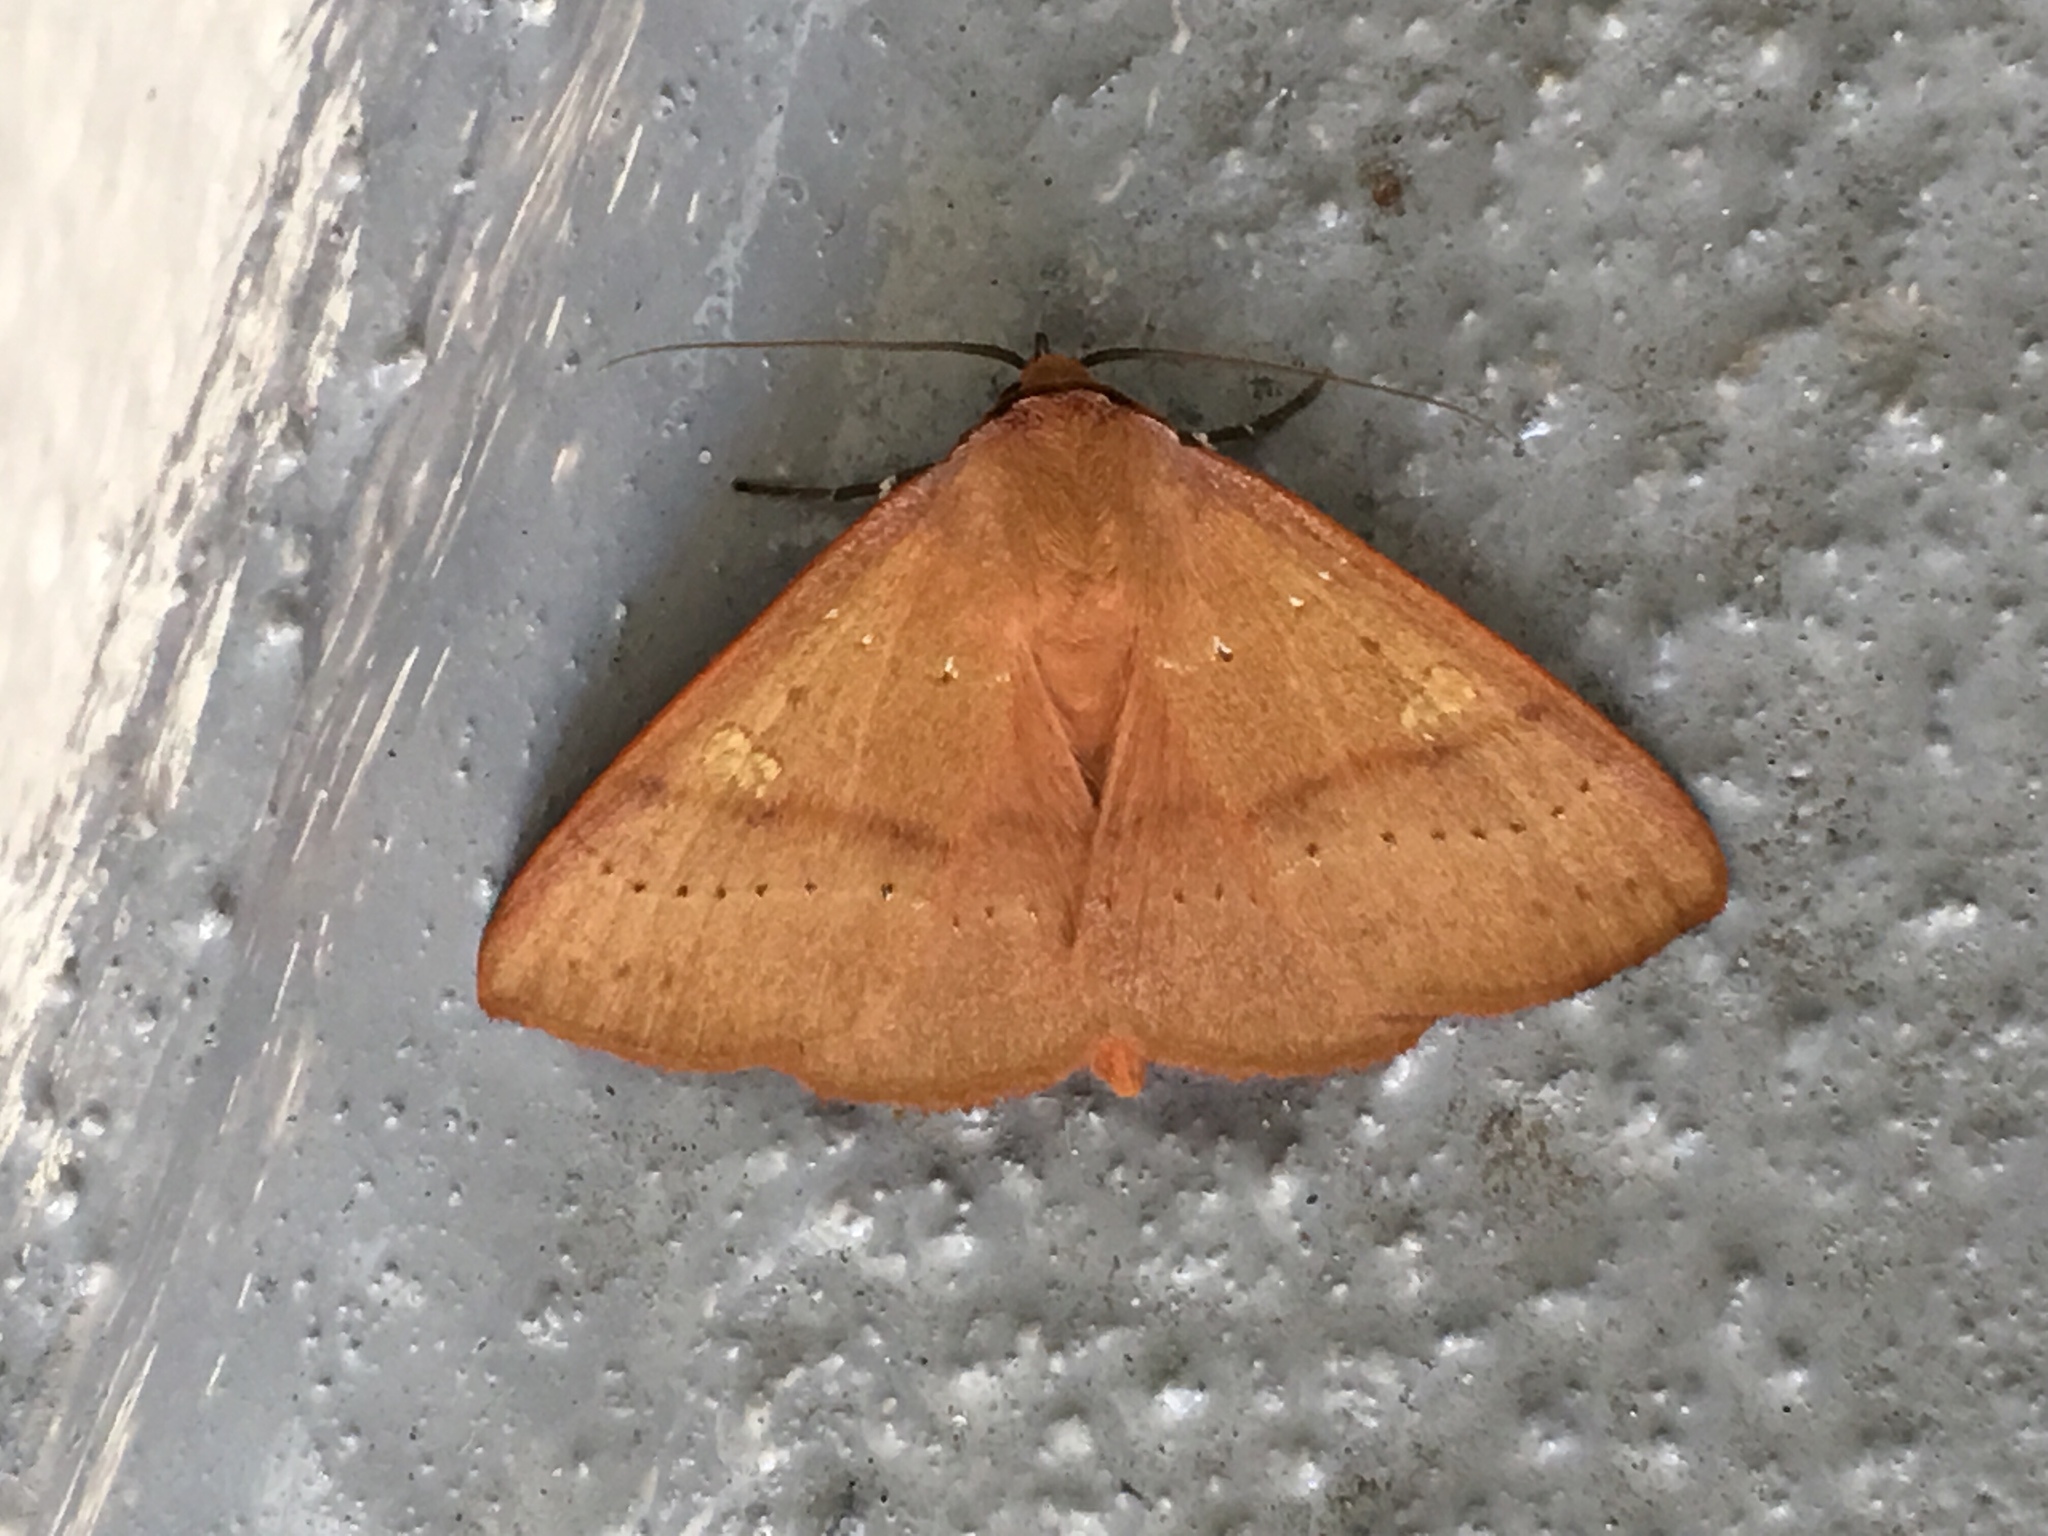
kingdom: Animalia
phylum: Arthropoda
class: Insecta
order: Lepidoptera
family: Erebidae
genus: Panopoda
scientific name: Panopoda repanda
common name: Orange panopoda
